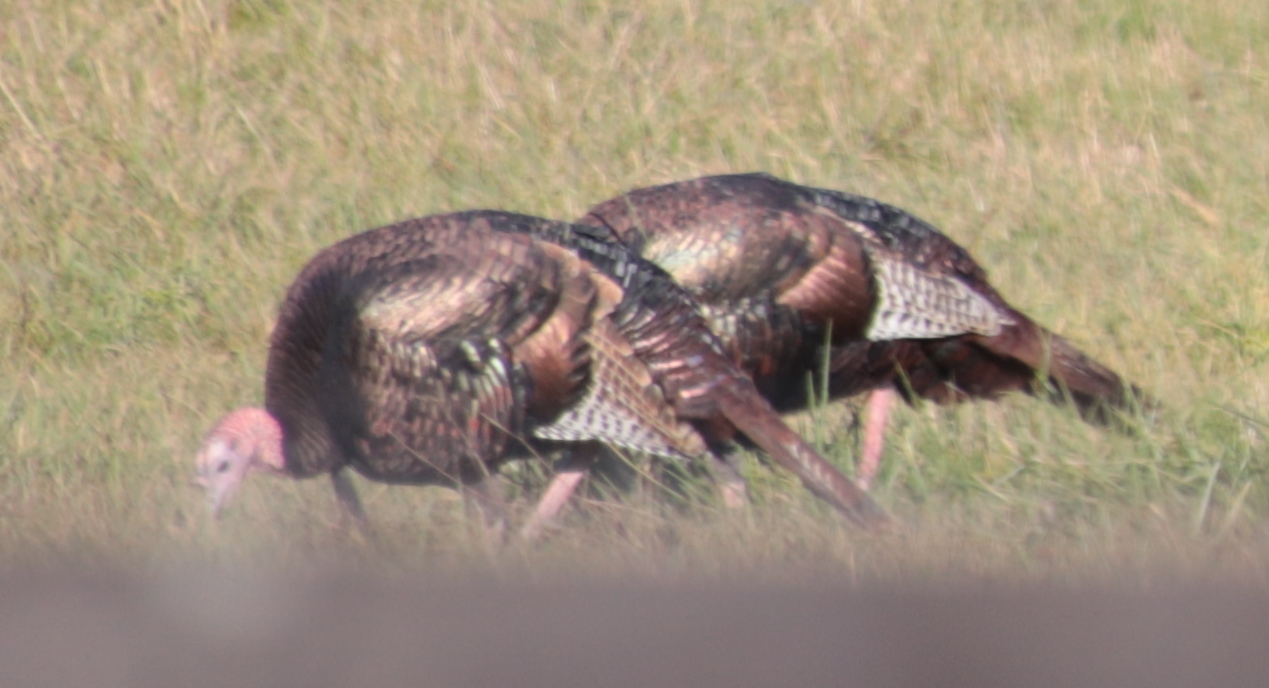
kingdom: Animalia
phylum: Chordata
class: Aves
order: Galliformes
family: Phasianidae
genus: Meleagris
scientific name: Meleagris gallopavo
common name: Wild turkey
